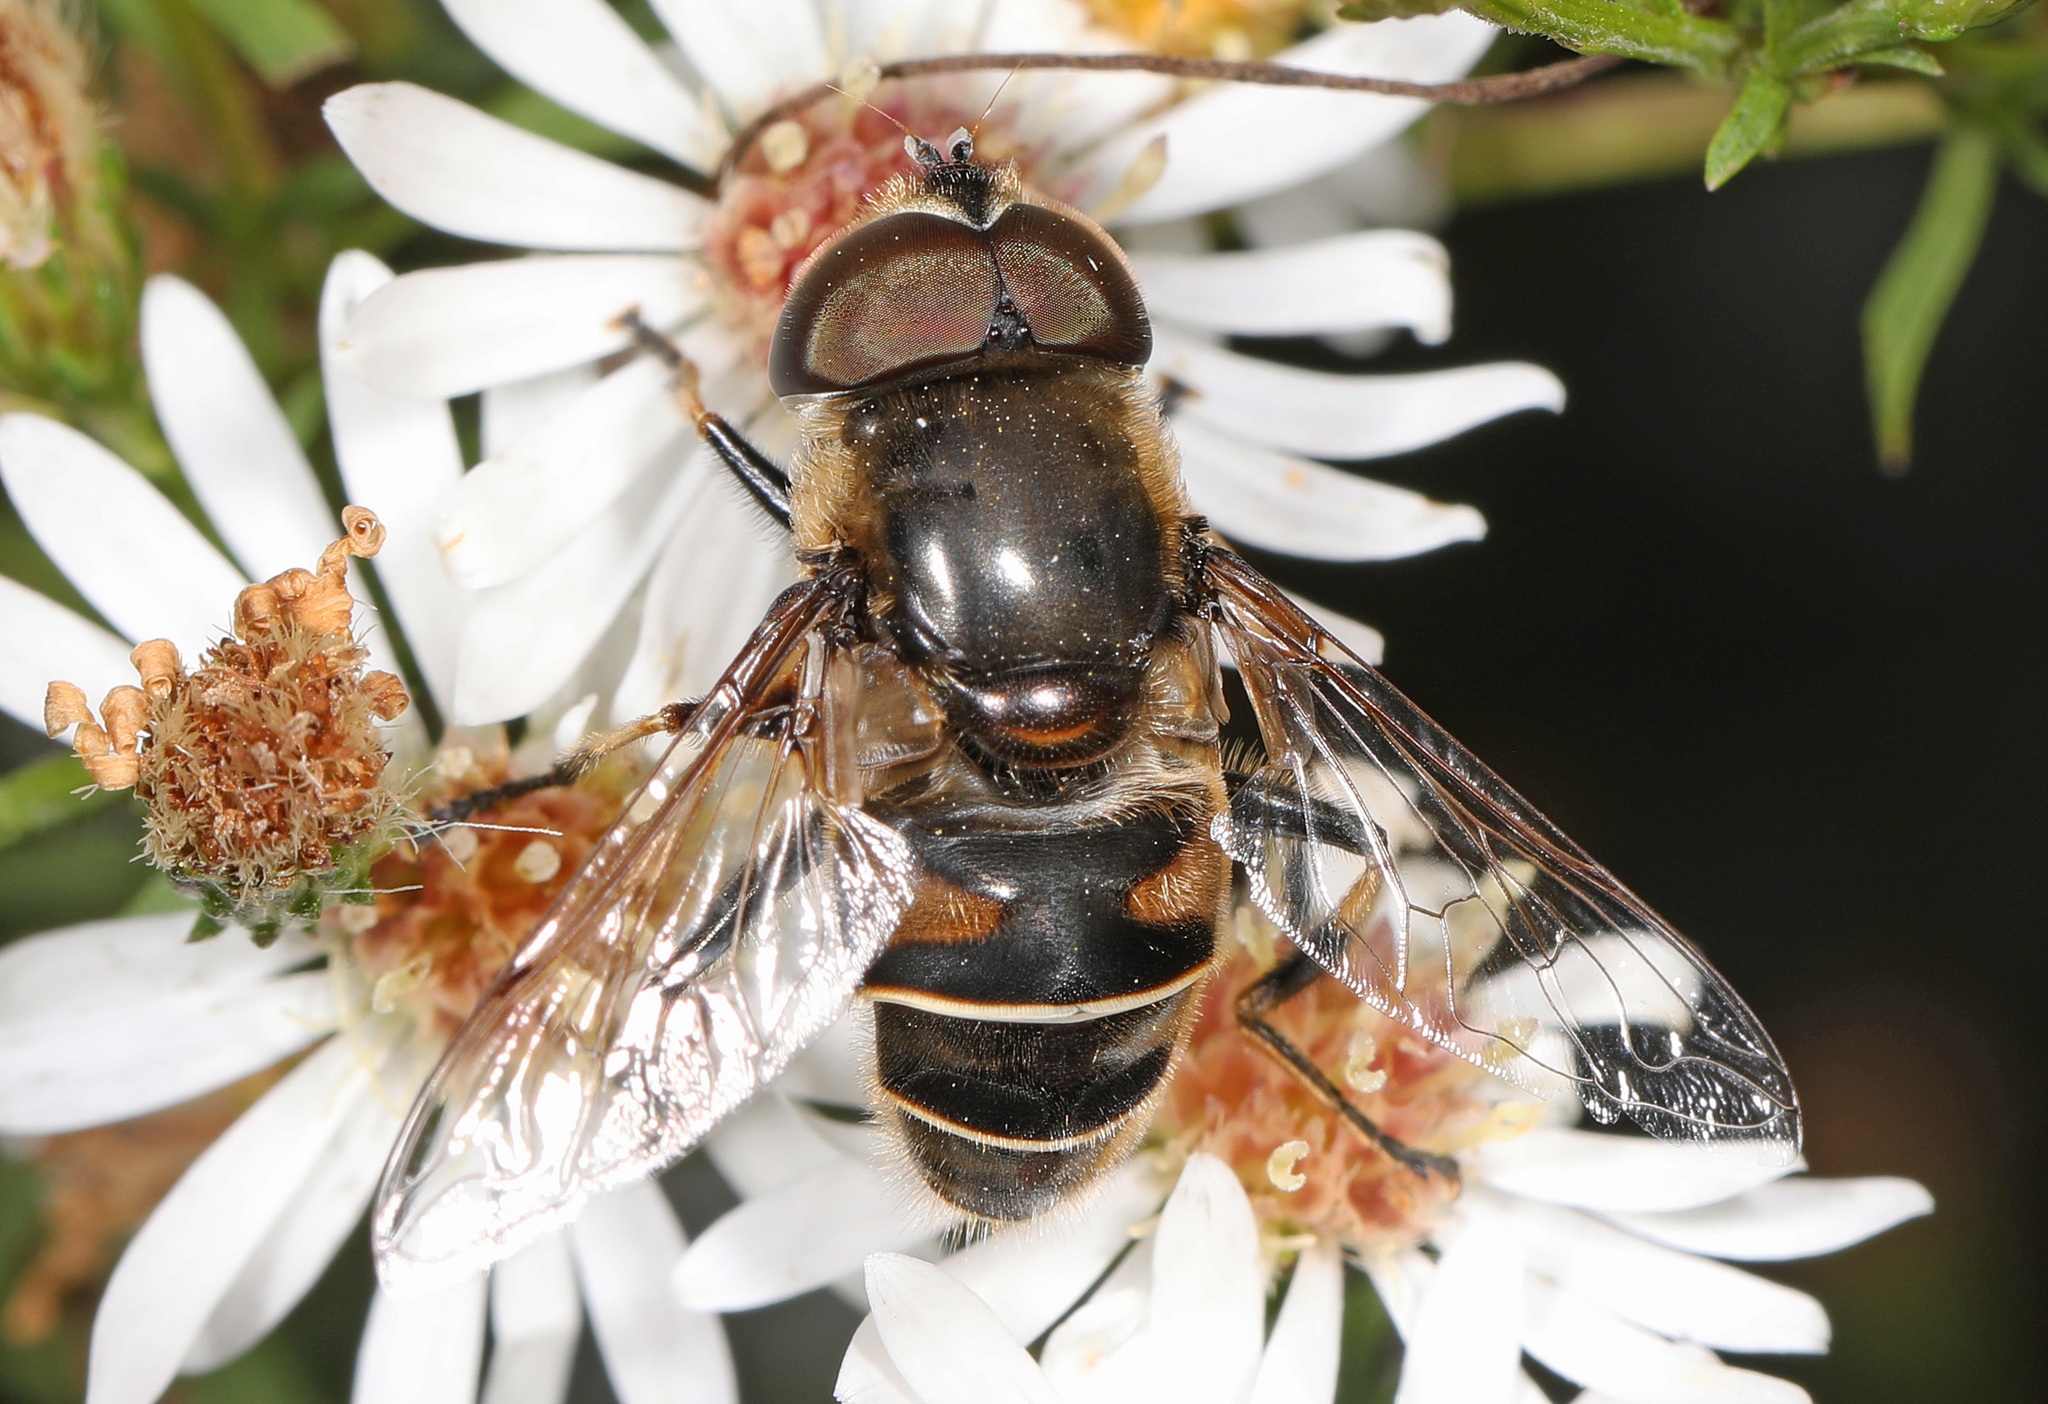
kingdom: Animalia
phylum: Arthropoda
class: Insecta
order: Diptera
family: Syrphidae
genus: Eristalis
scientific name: Eristalis dimidiata
